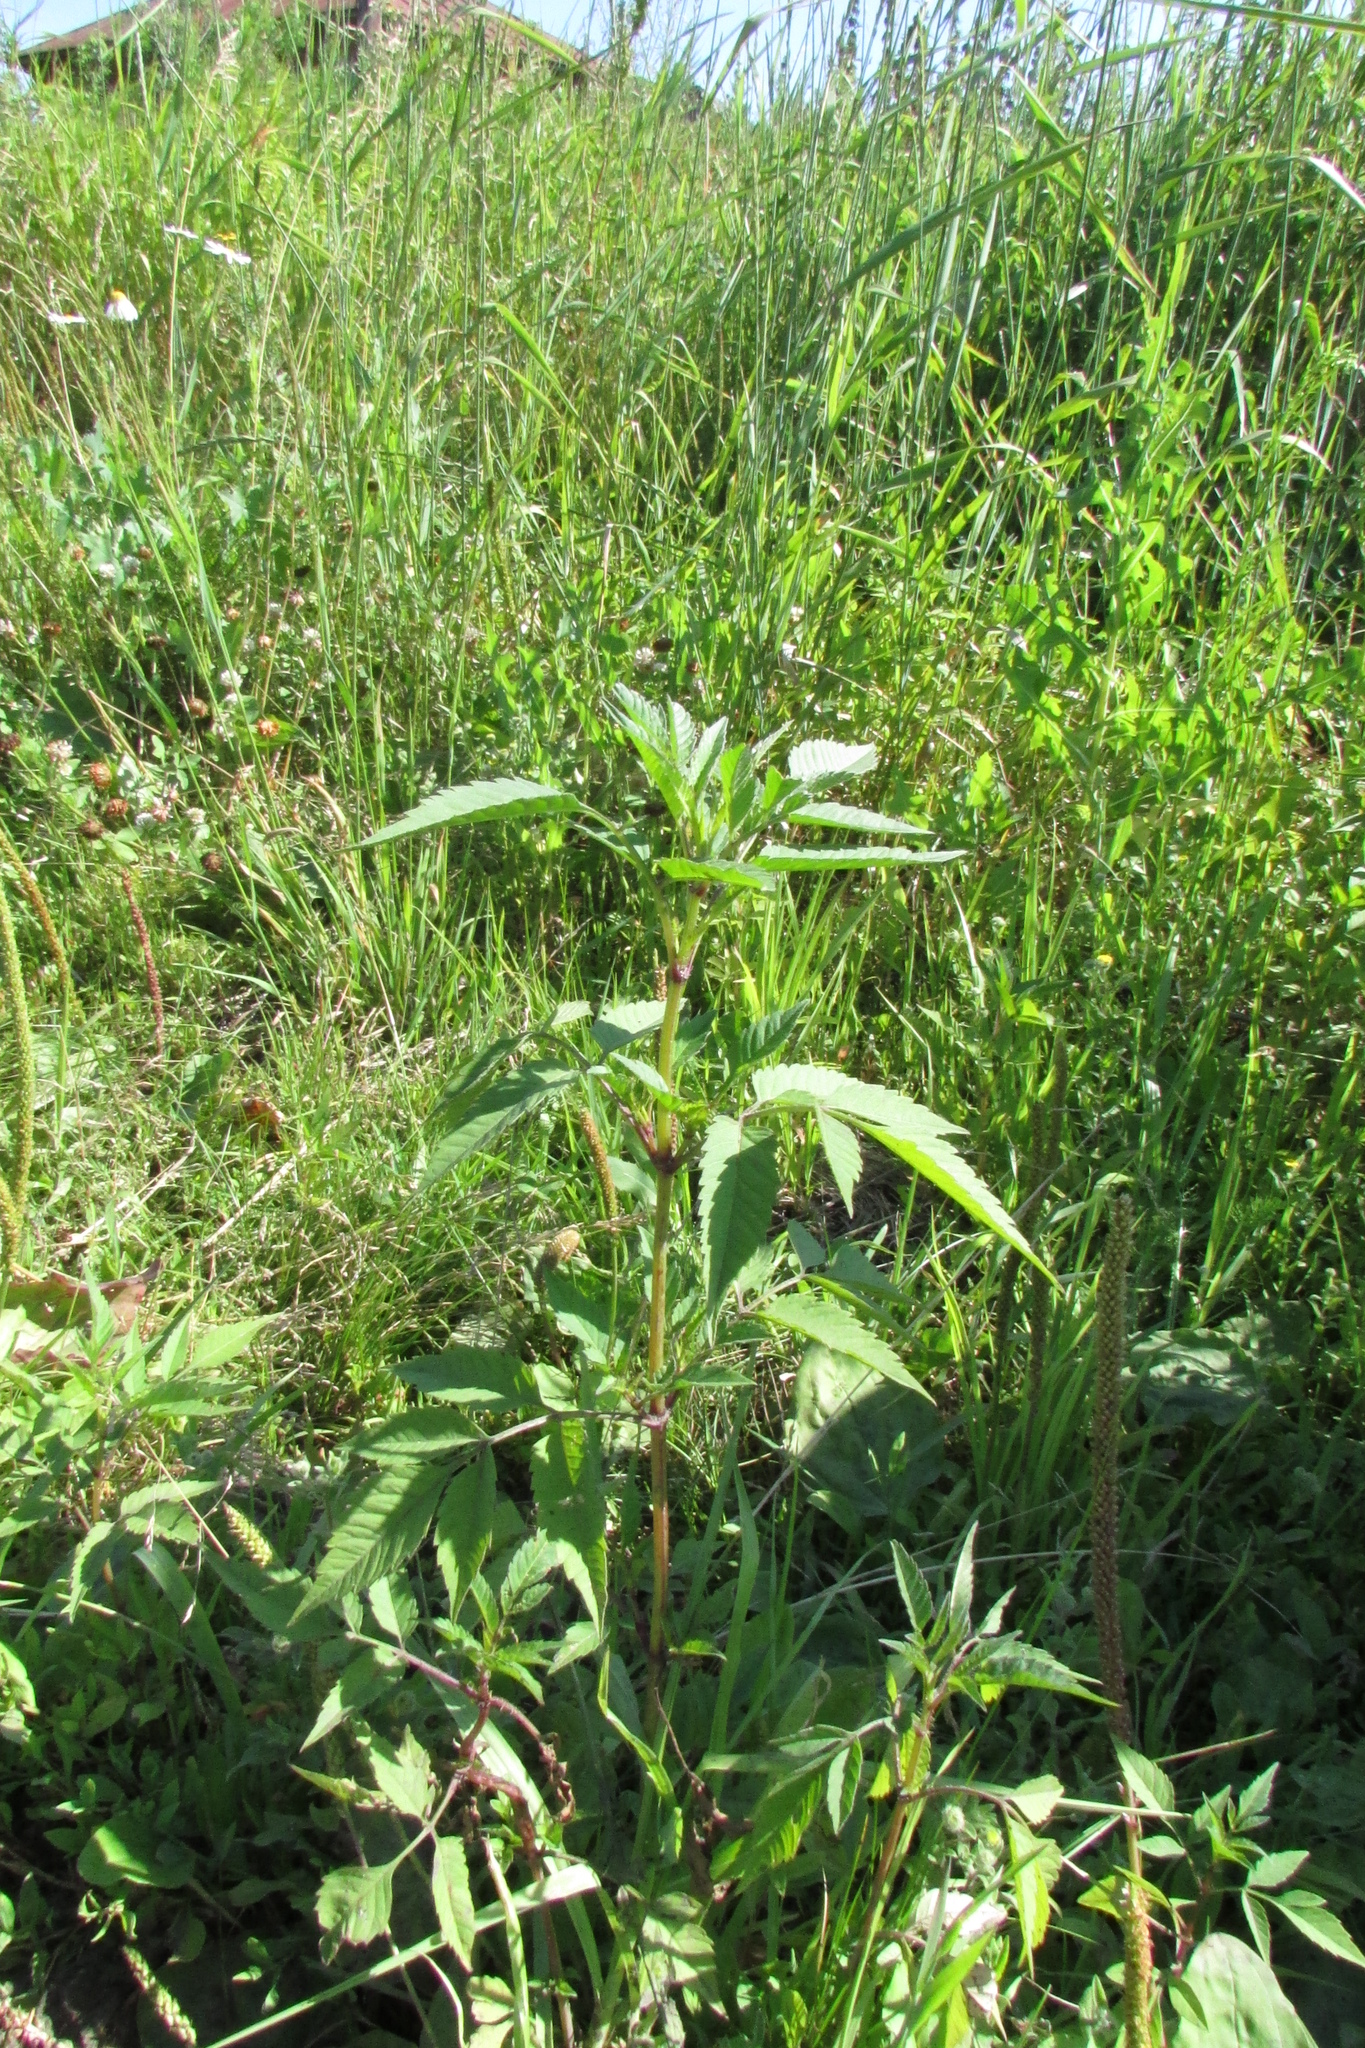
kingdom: Plantae
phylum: Tracheophyta
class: Magnoliopsida
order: Asterales
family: Asteraceae
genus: Bidens
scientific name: Bidens frondosa
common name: Beggarticks
